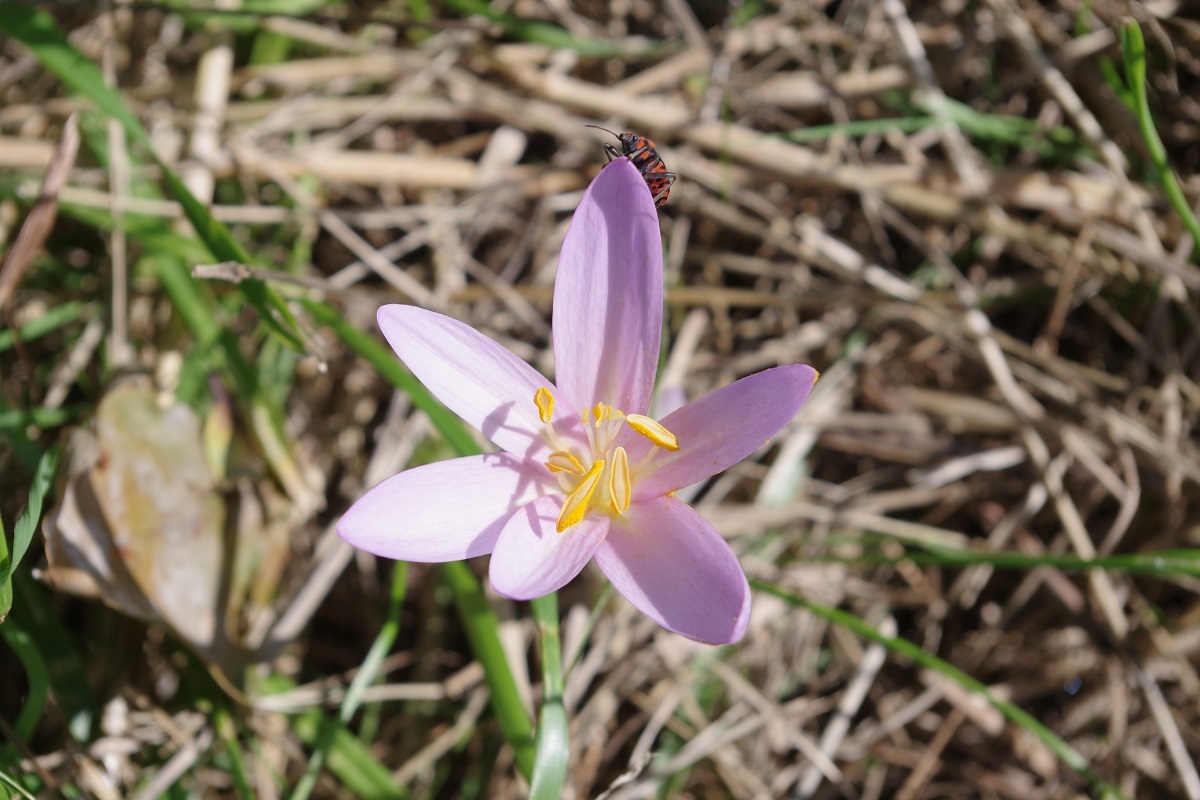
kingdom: Plantae
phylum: Tracheophyta
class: Liliopsida
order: Liliales
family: Colchicaceae
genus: Colchicum
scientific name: Colchicum autumnale
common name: Autumn crocus
